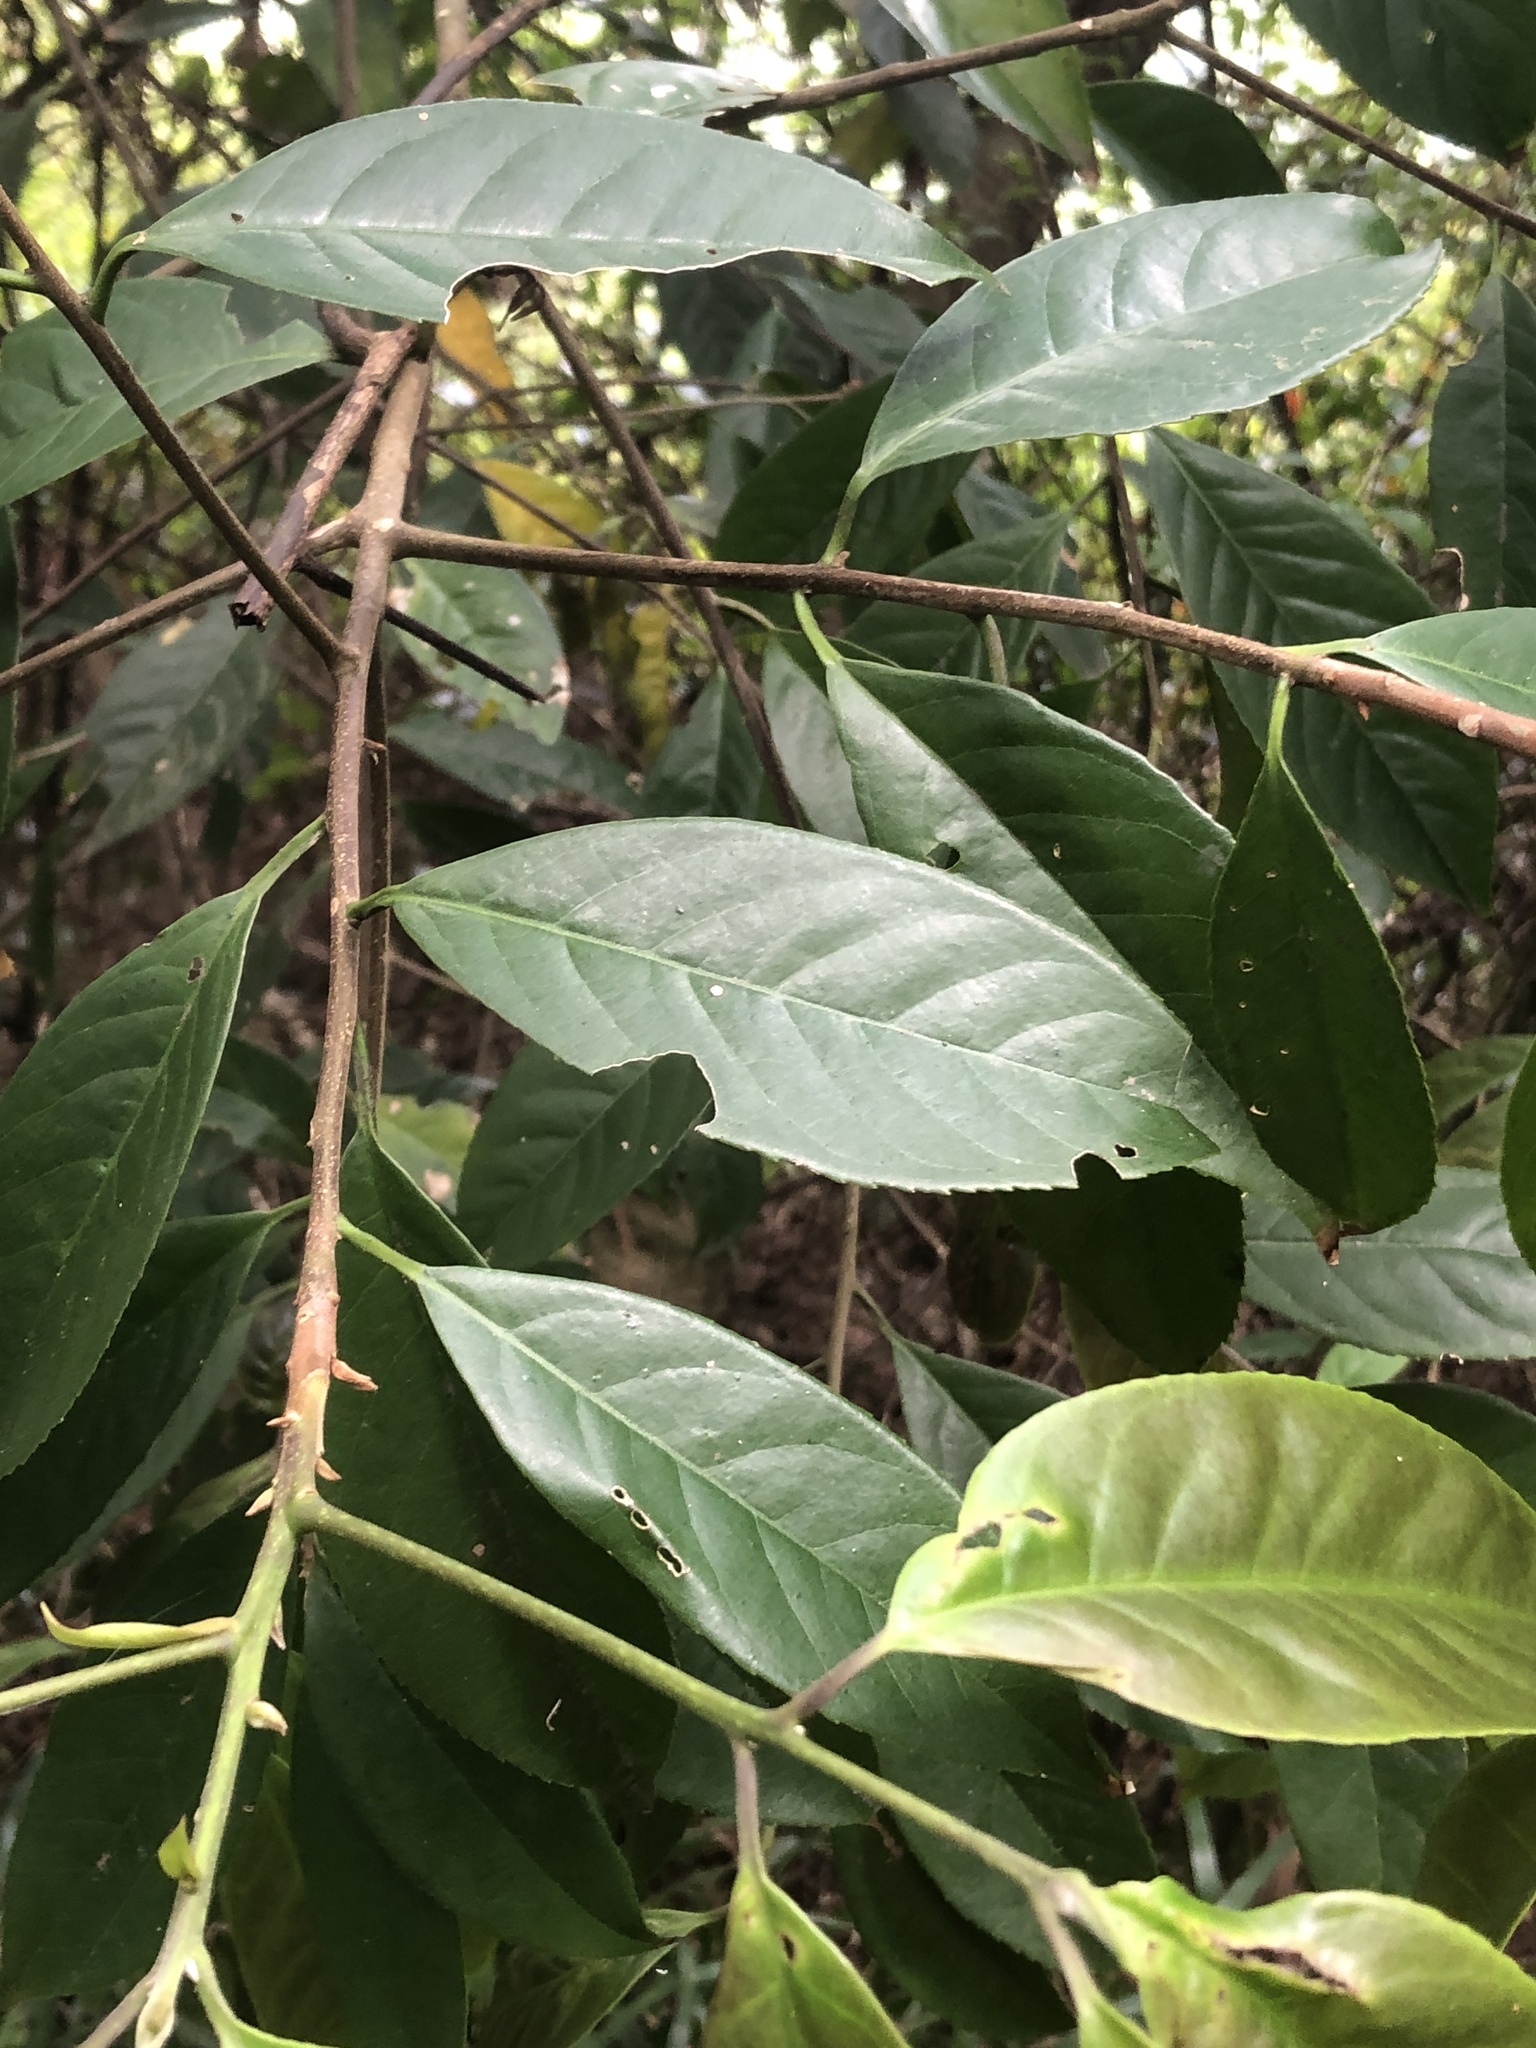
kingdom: Plantae
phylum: Tracheophyta
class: Magnoliopsida
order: Rosales
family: Rosaceae
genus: Prunus
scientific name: Prunus zippeliana
